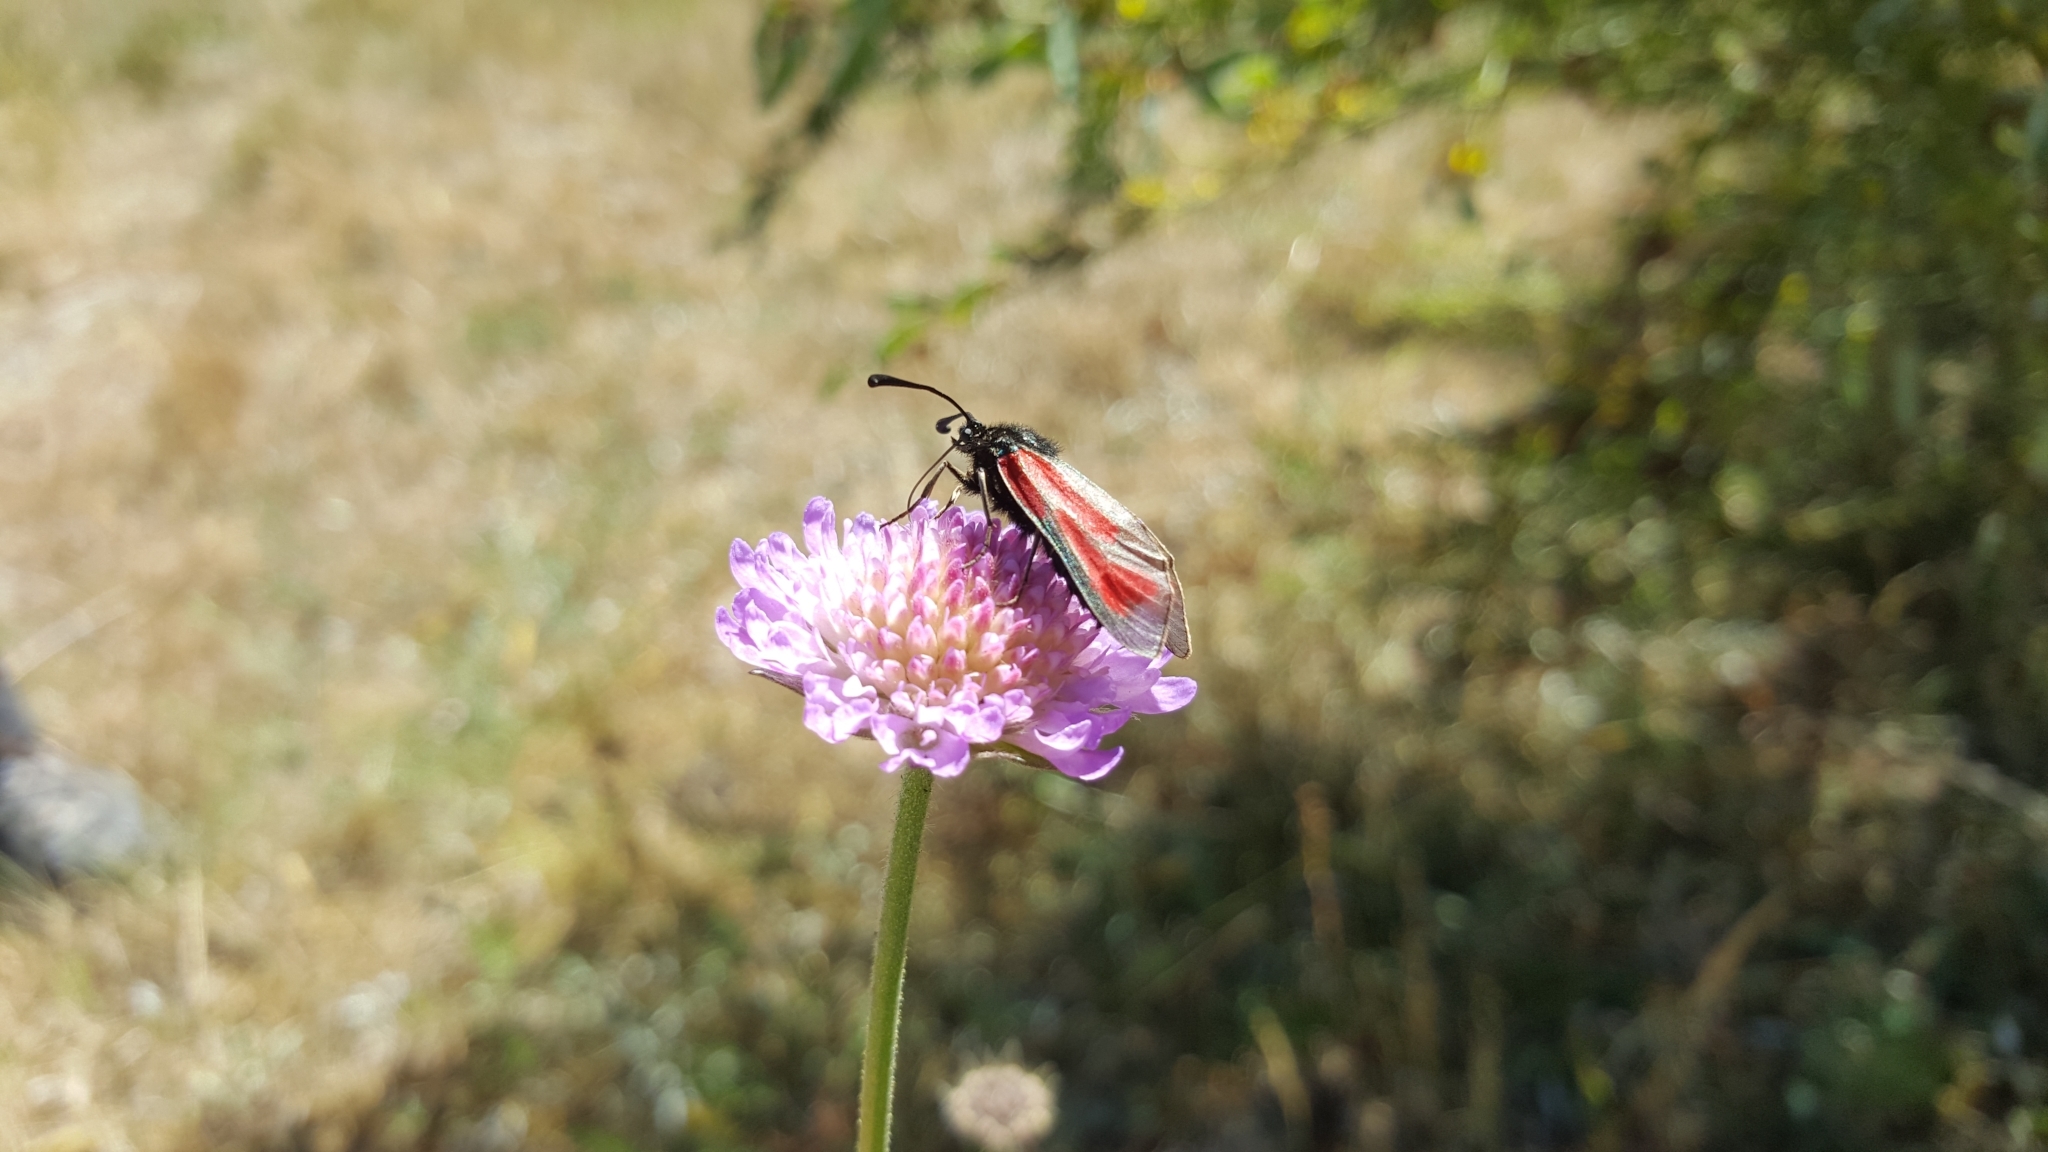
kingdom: Animalia
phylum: Arthropoda
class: Insecta
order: Lepidoptera
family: Zygaenidae
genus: Zygaena
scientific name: Zygaena minos
